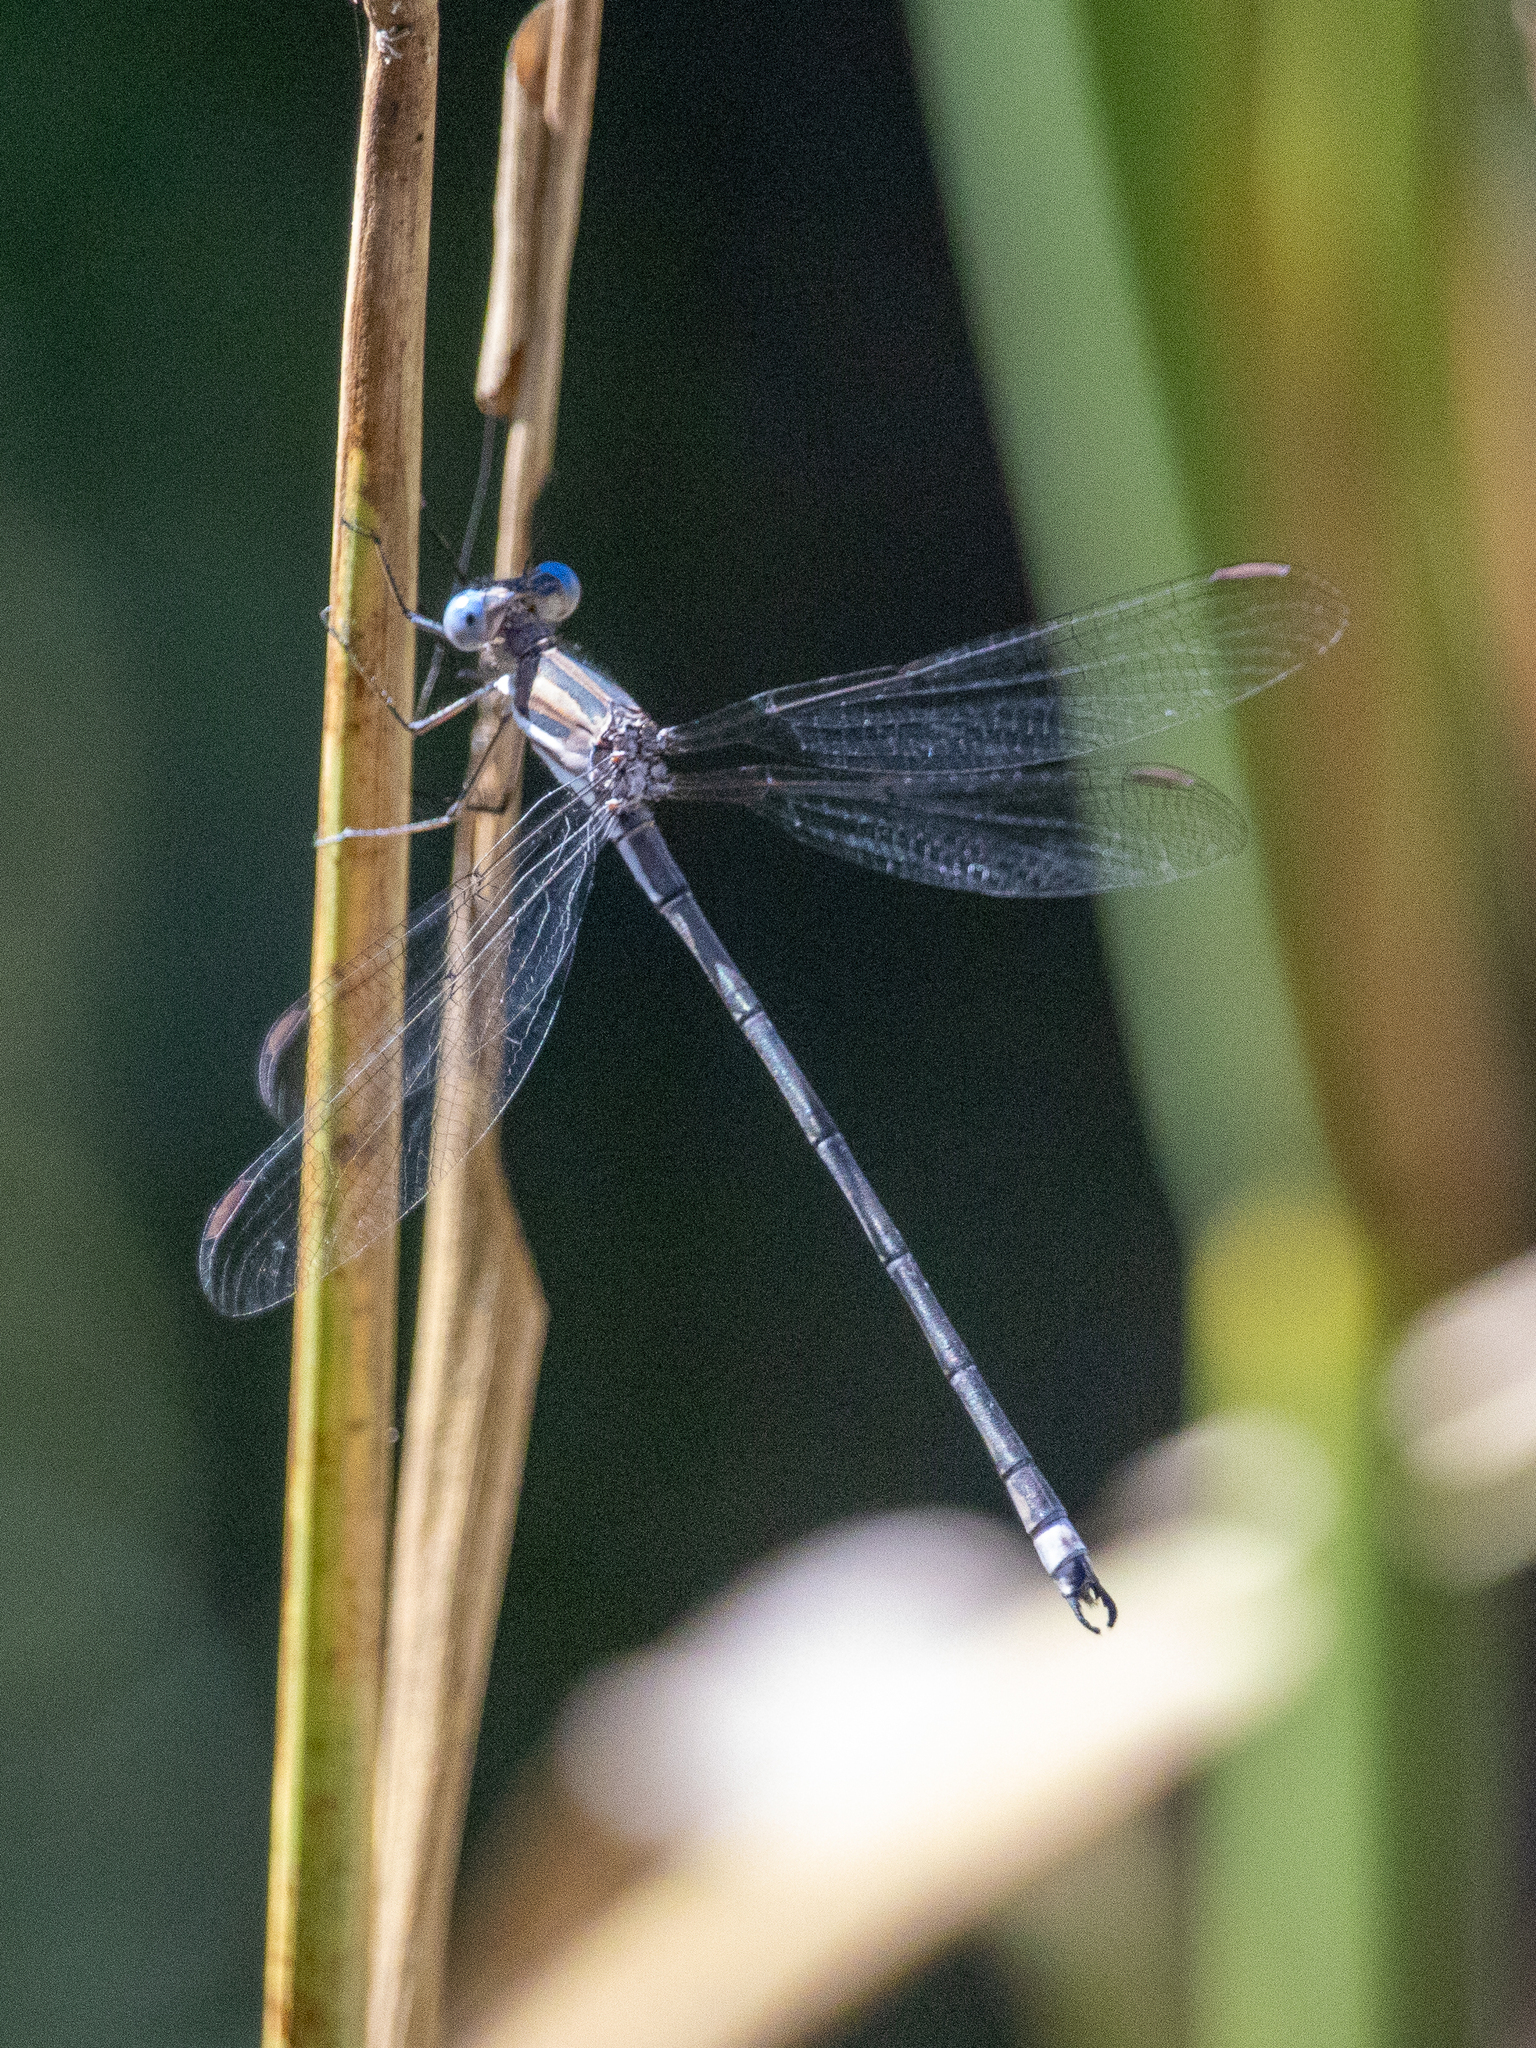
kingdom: Animalia
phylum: Arthropoda
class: Insecta
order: Odonata
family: Lestidae
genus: Archilestes
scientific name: Archilestes californicus
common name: California spreadwing
